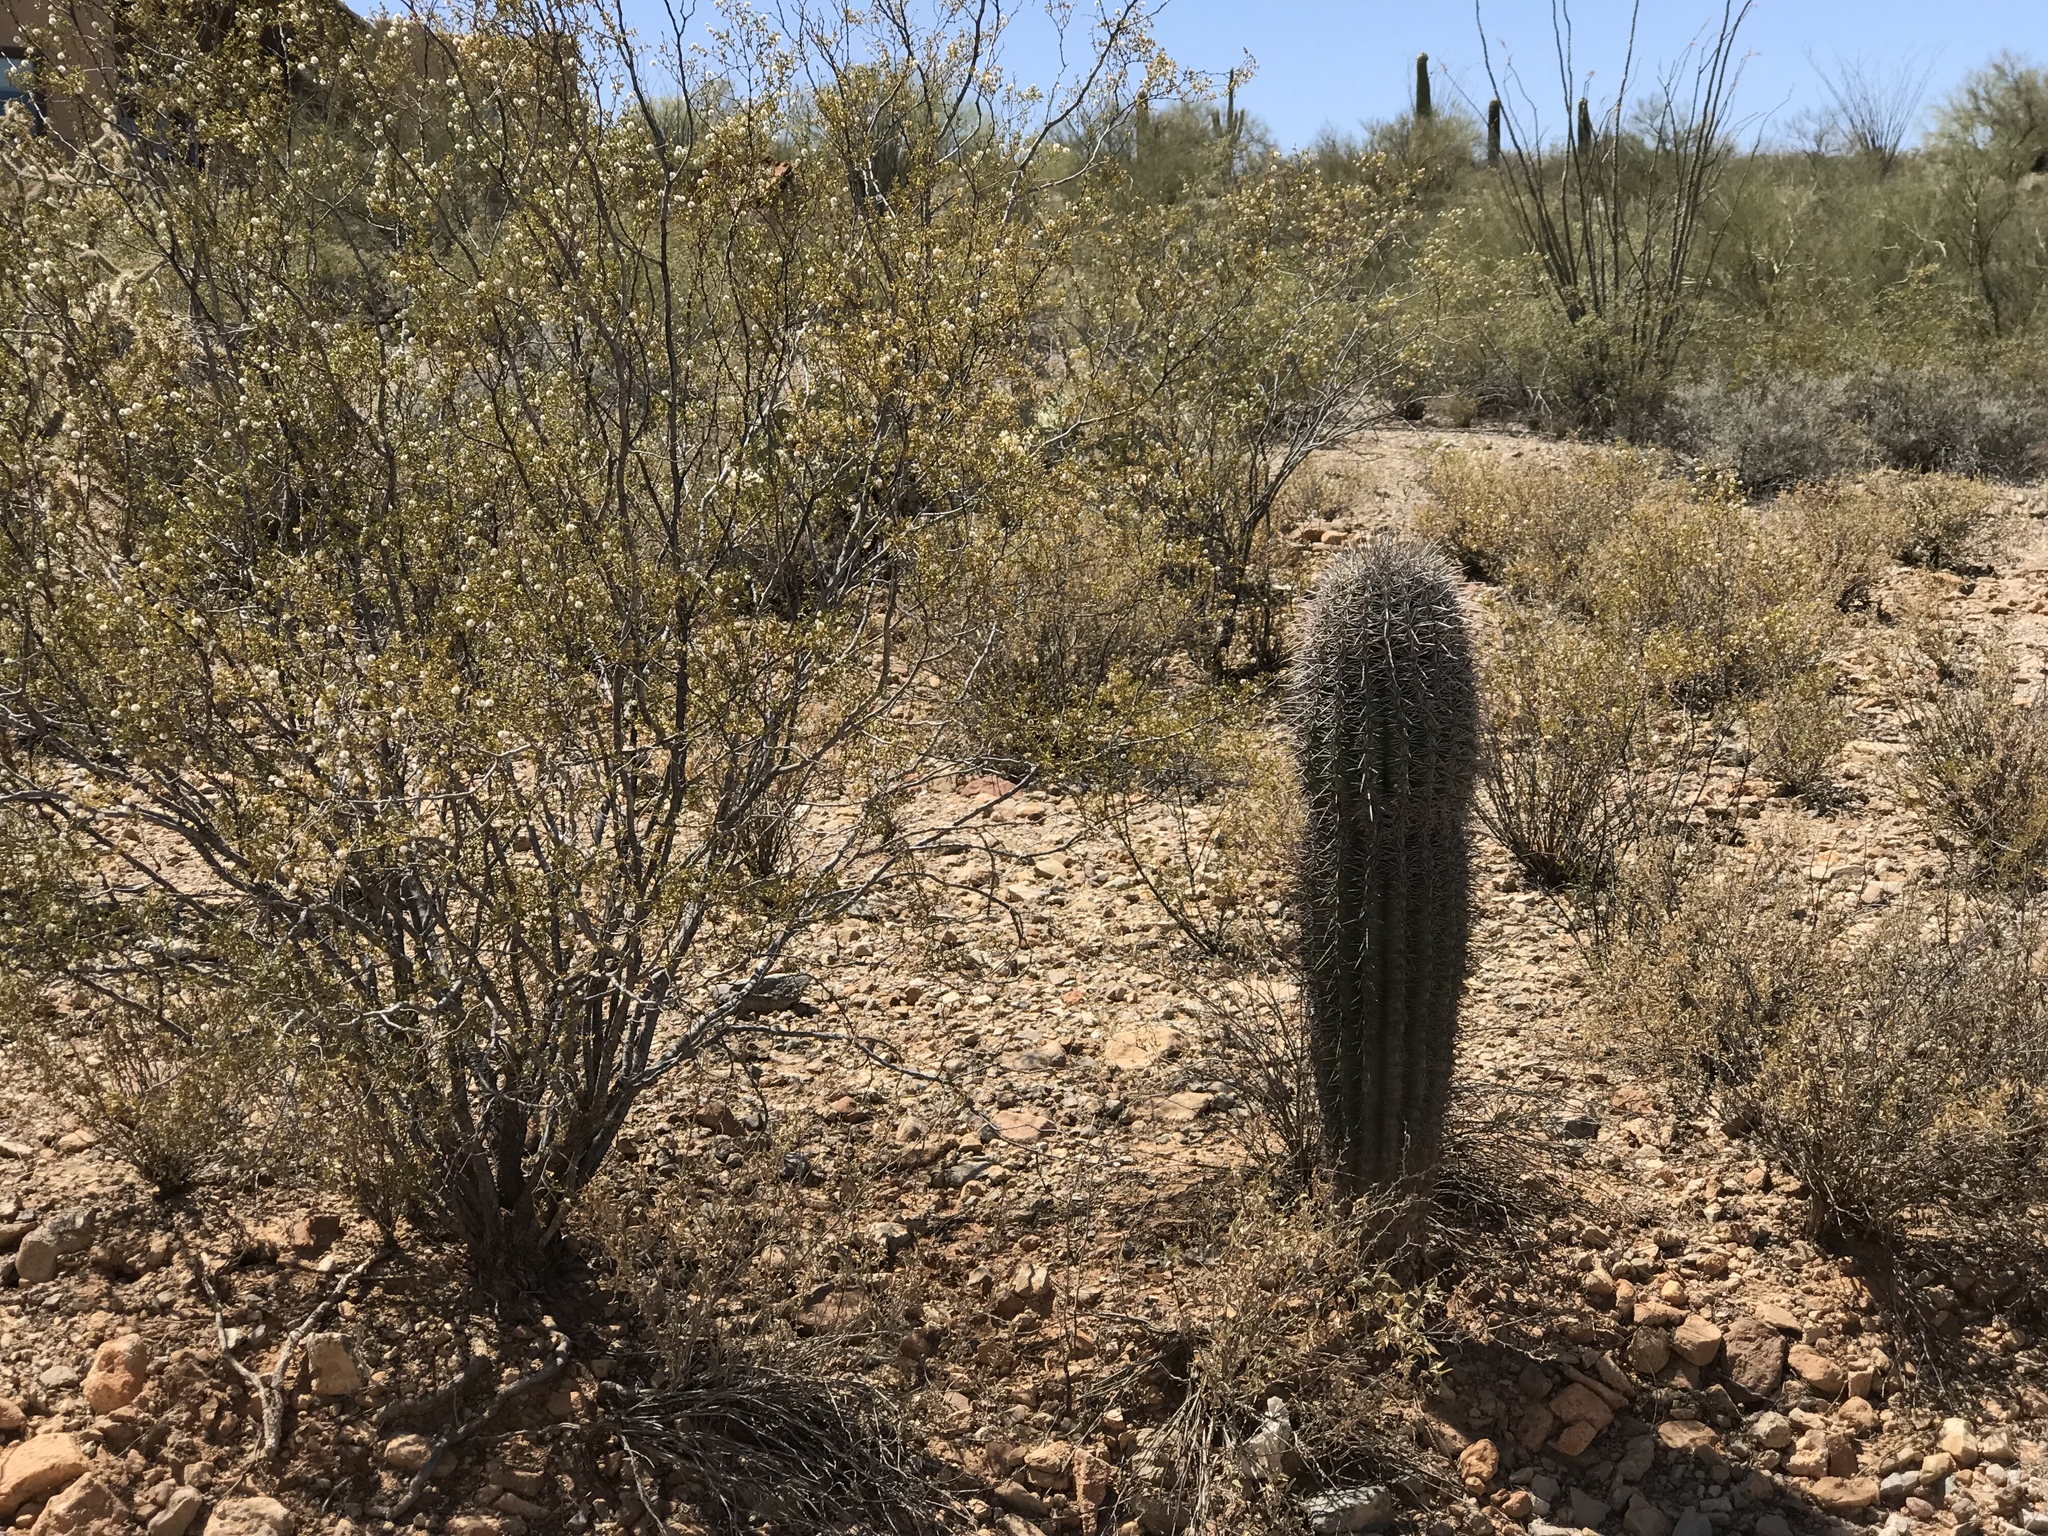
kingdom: Plantae
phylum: Tracheophyta
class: Magnoliopsida
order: Caryophyllales
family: Cactaceae
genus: Carnegiea
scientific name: Carnegiea gigantea
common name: Saguaro
